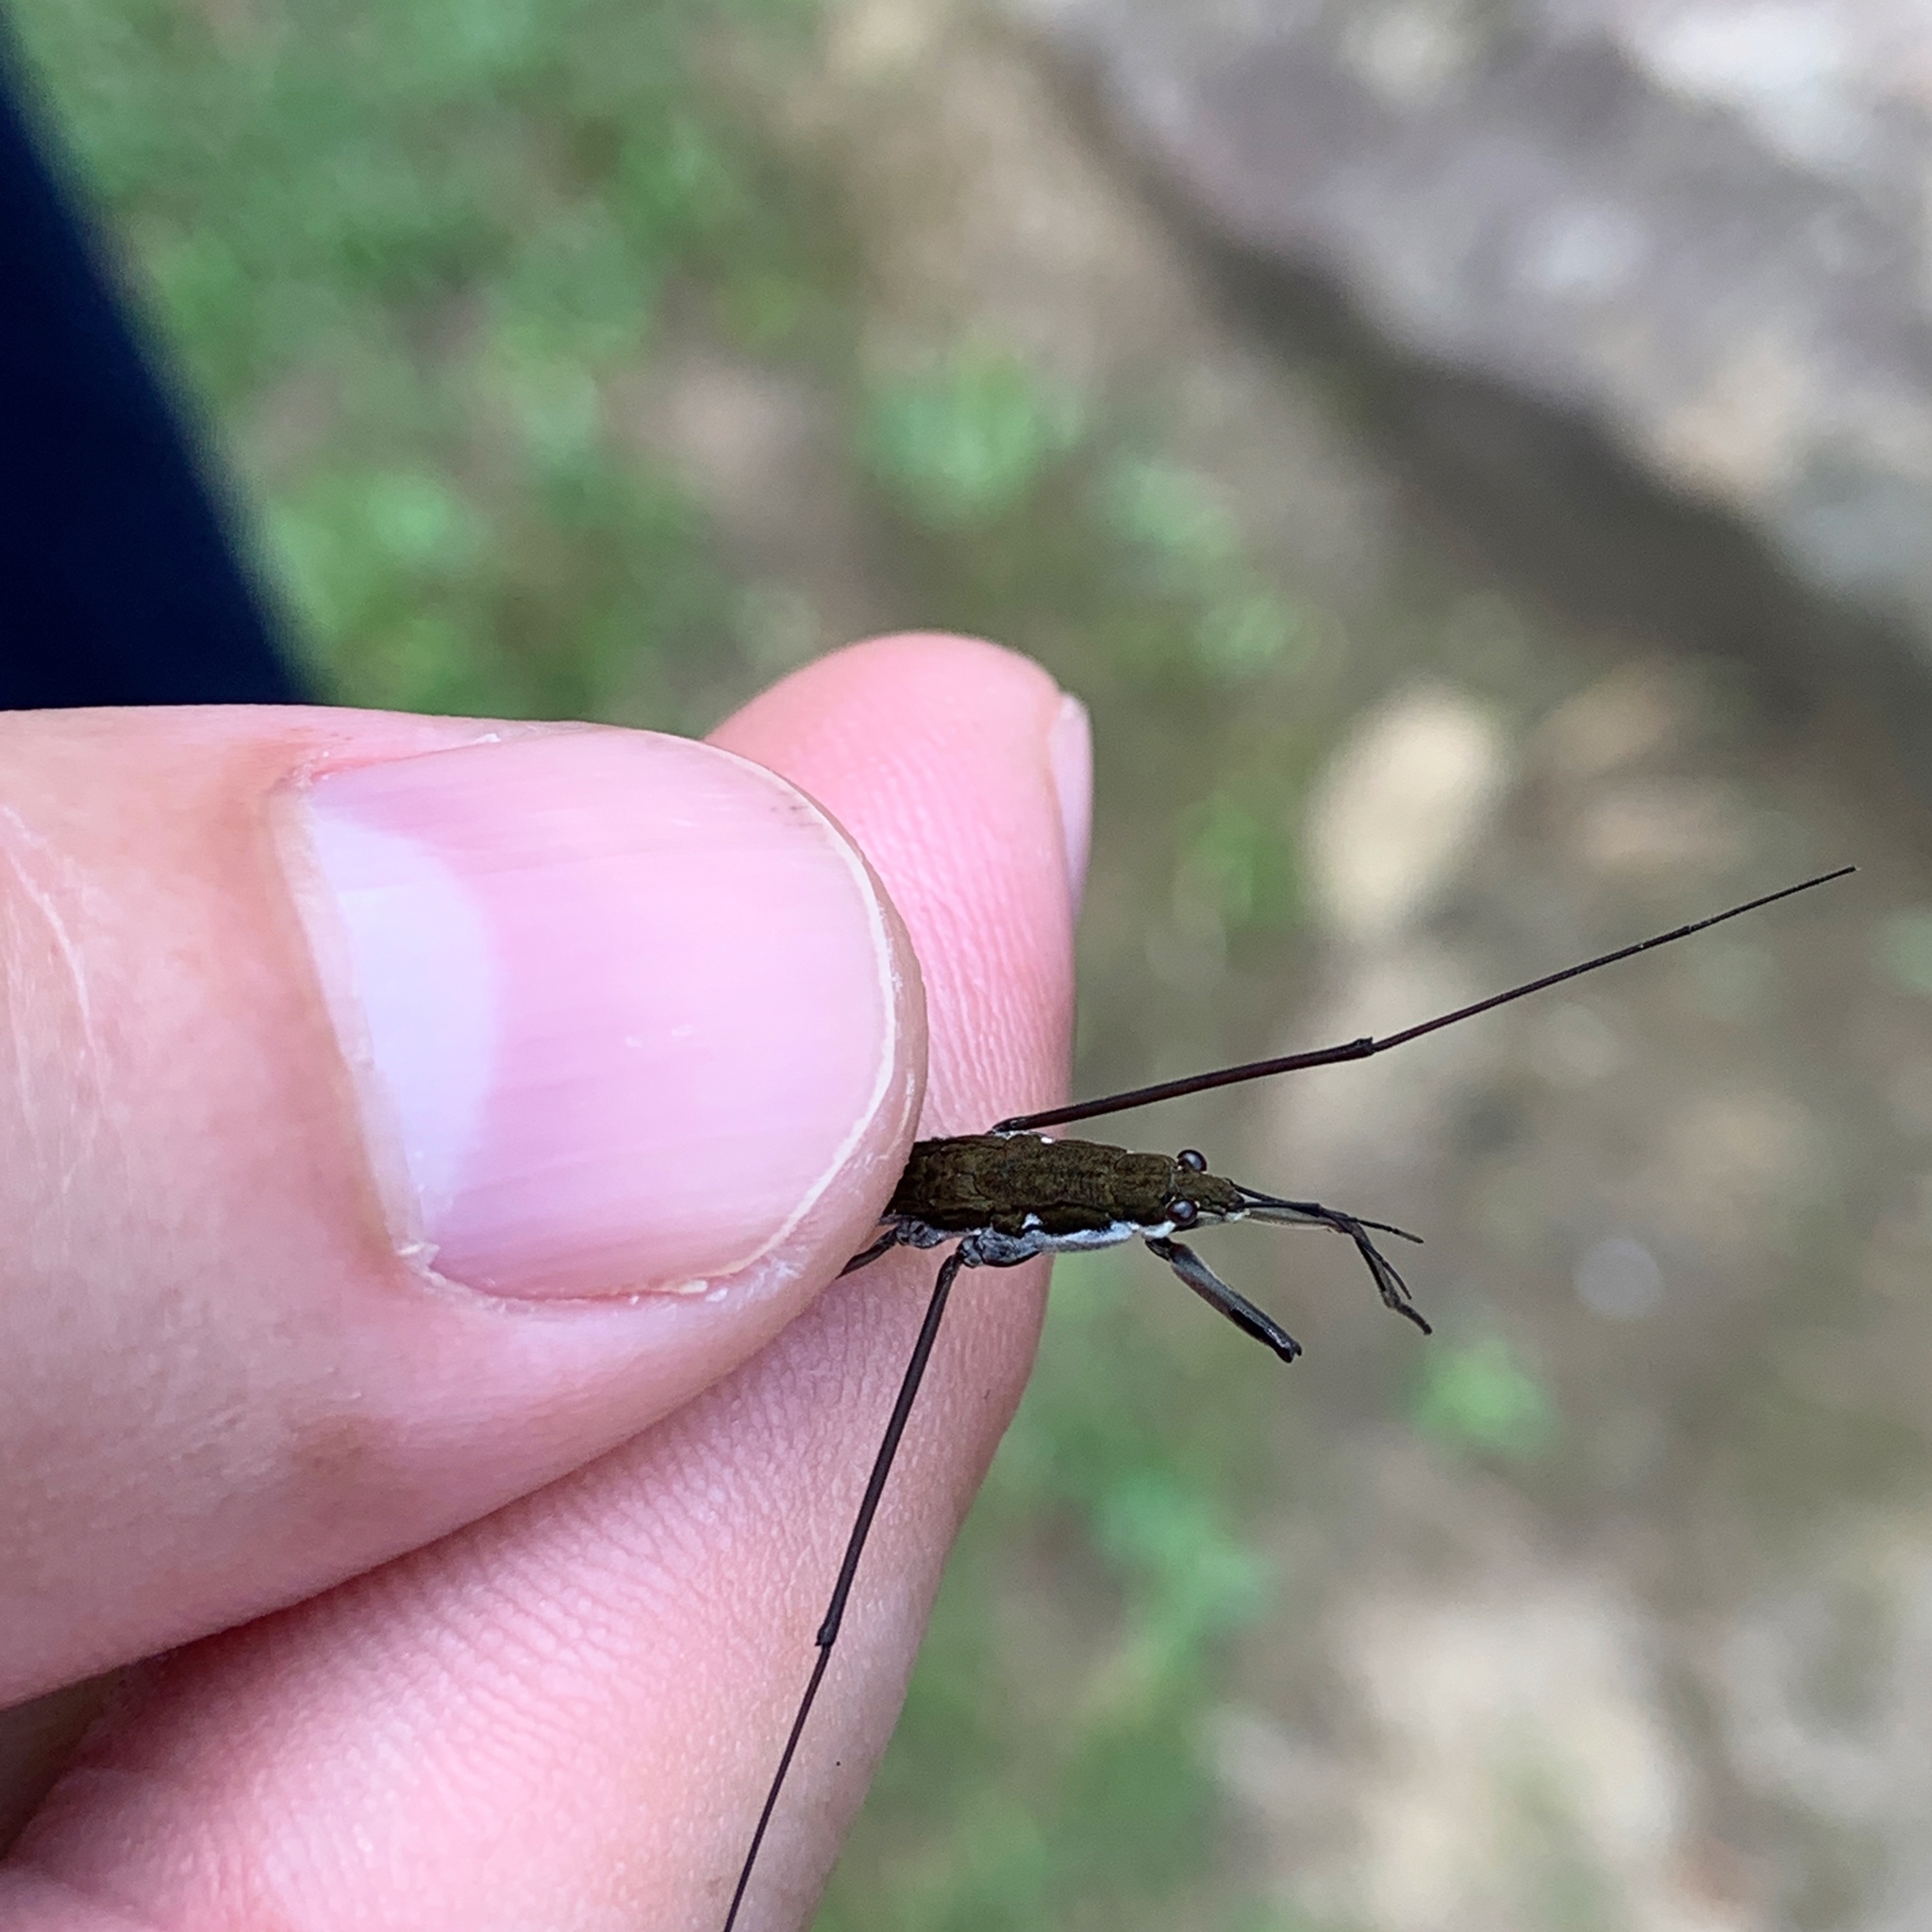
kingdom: Animalia
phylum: Arthropoda
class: Insecta
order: Hemiptera
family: Gerridae
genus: Aquarius
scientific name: Aquarius
